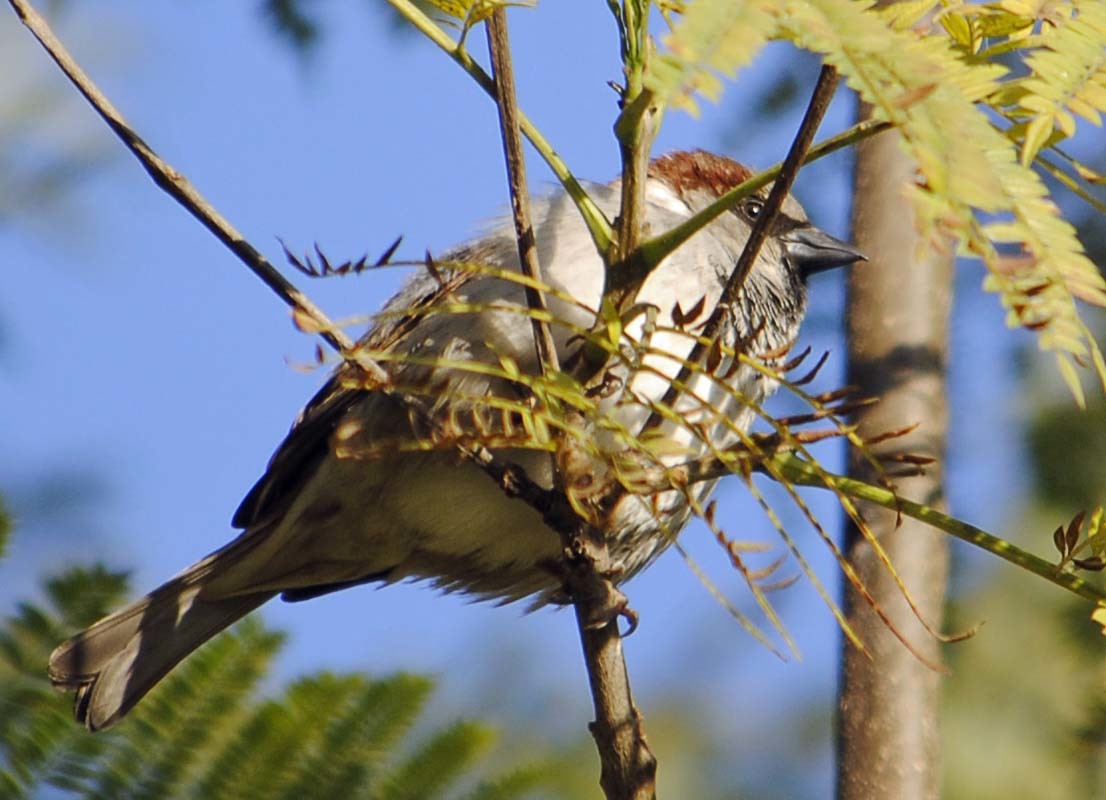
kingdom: Animalia
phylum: Chordata
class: Aves
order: Passeriformes
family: Passeridae
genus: Passer
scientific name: Passer domesticus
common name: House sparrow
